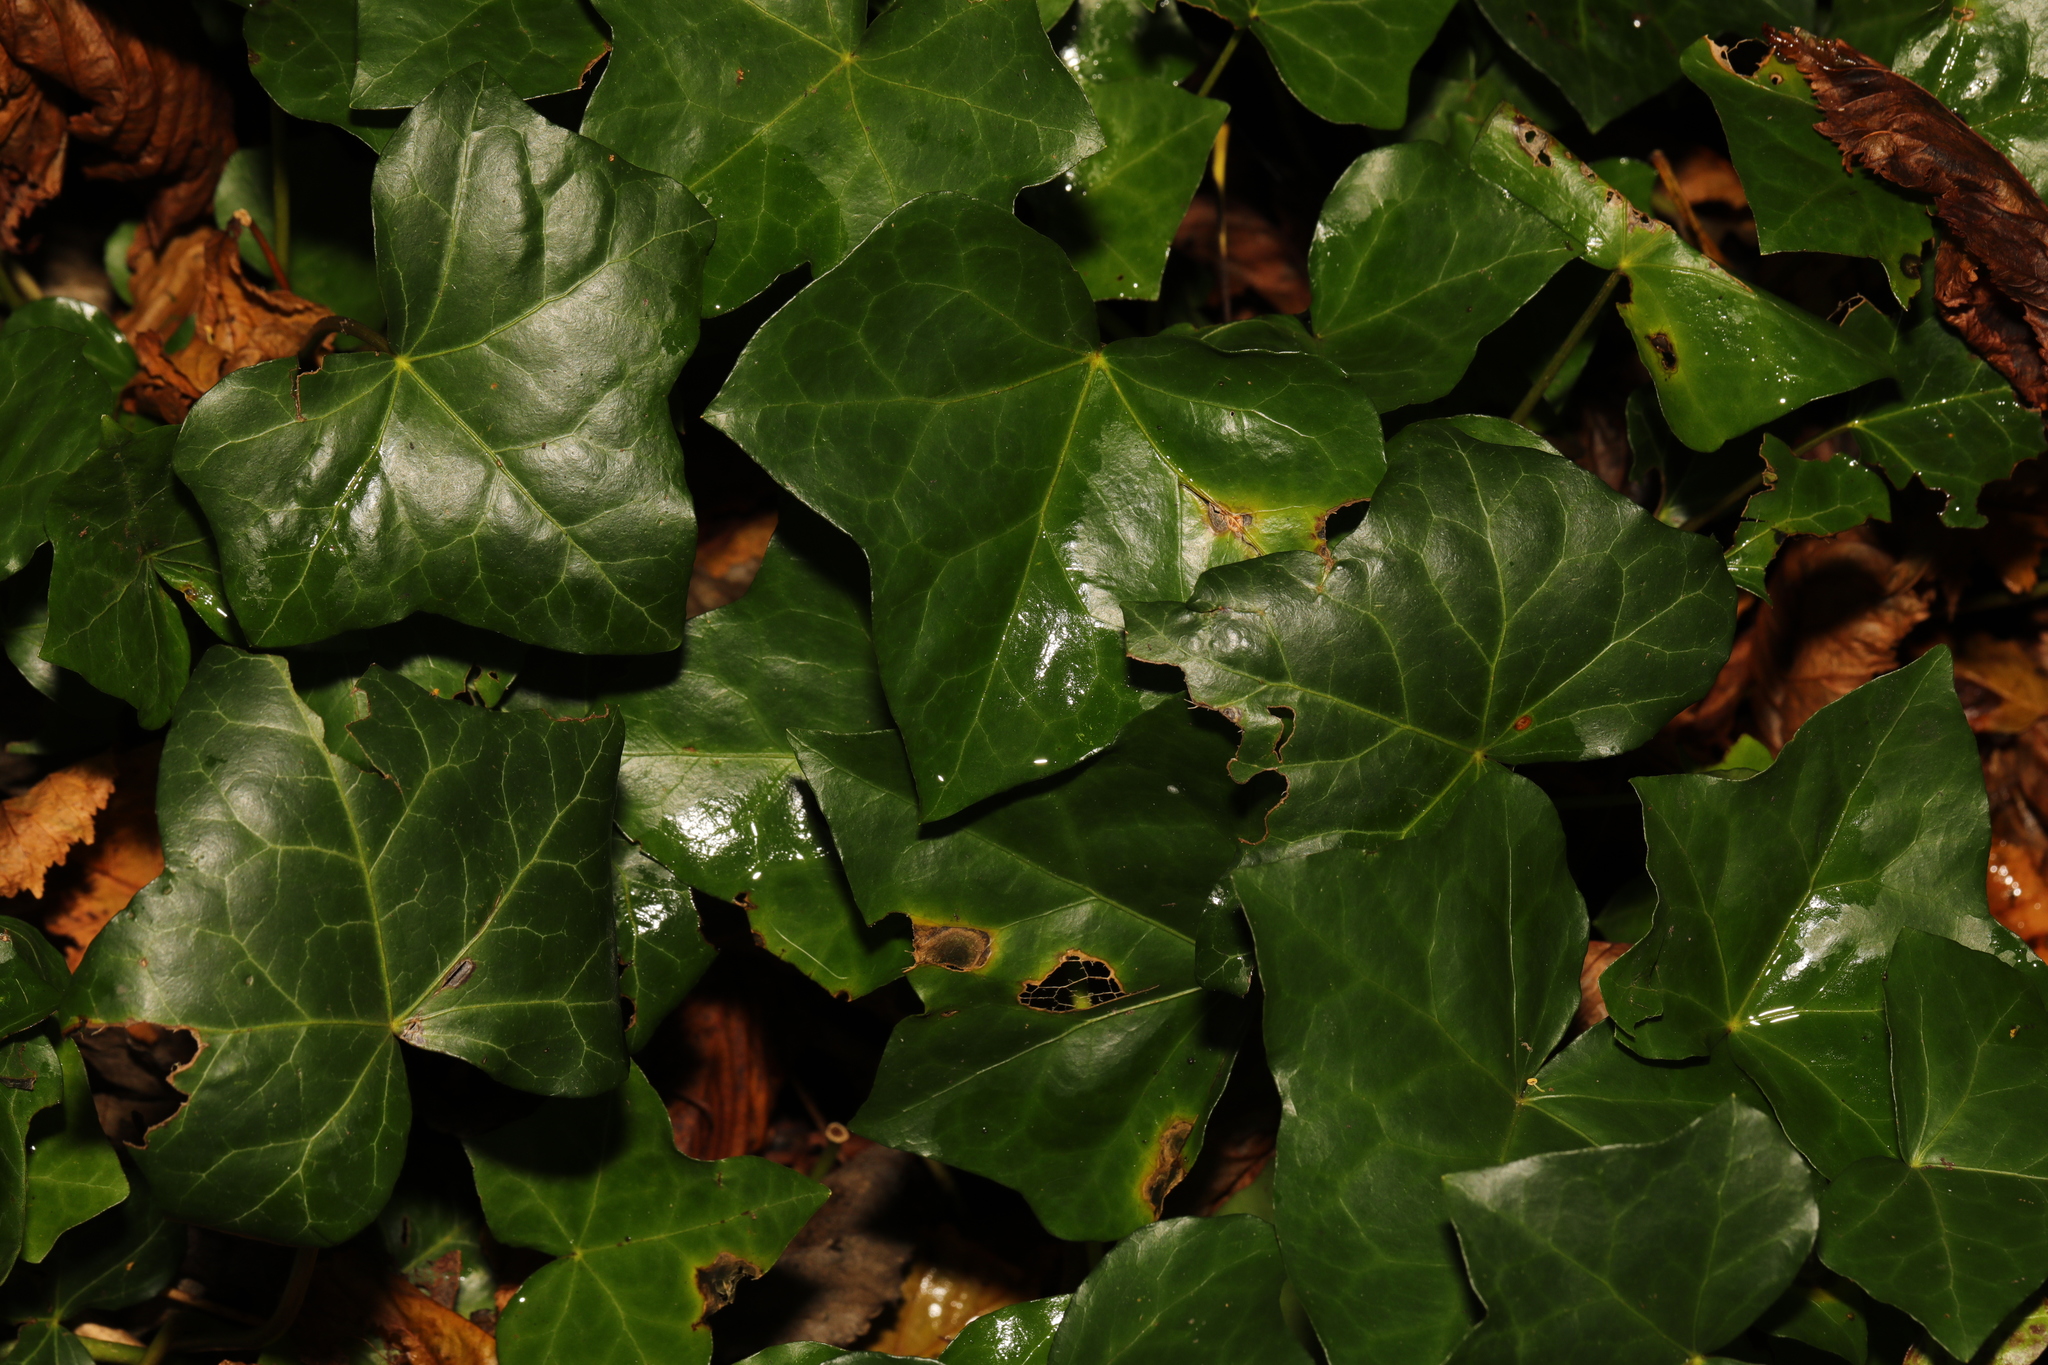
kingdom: Plantae
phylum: Tracheophyta
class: Magnoliopsida
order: Apiales
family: Araliaceae
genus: Hedera
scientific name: Hedera helix
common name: Ivy
